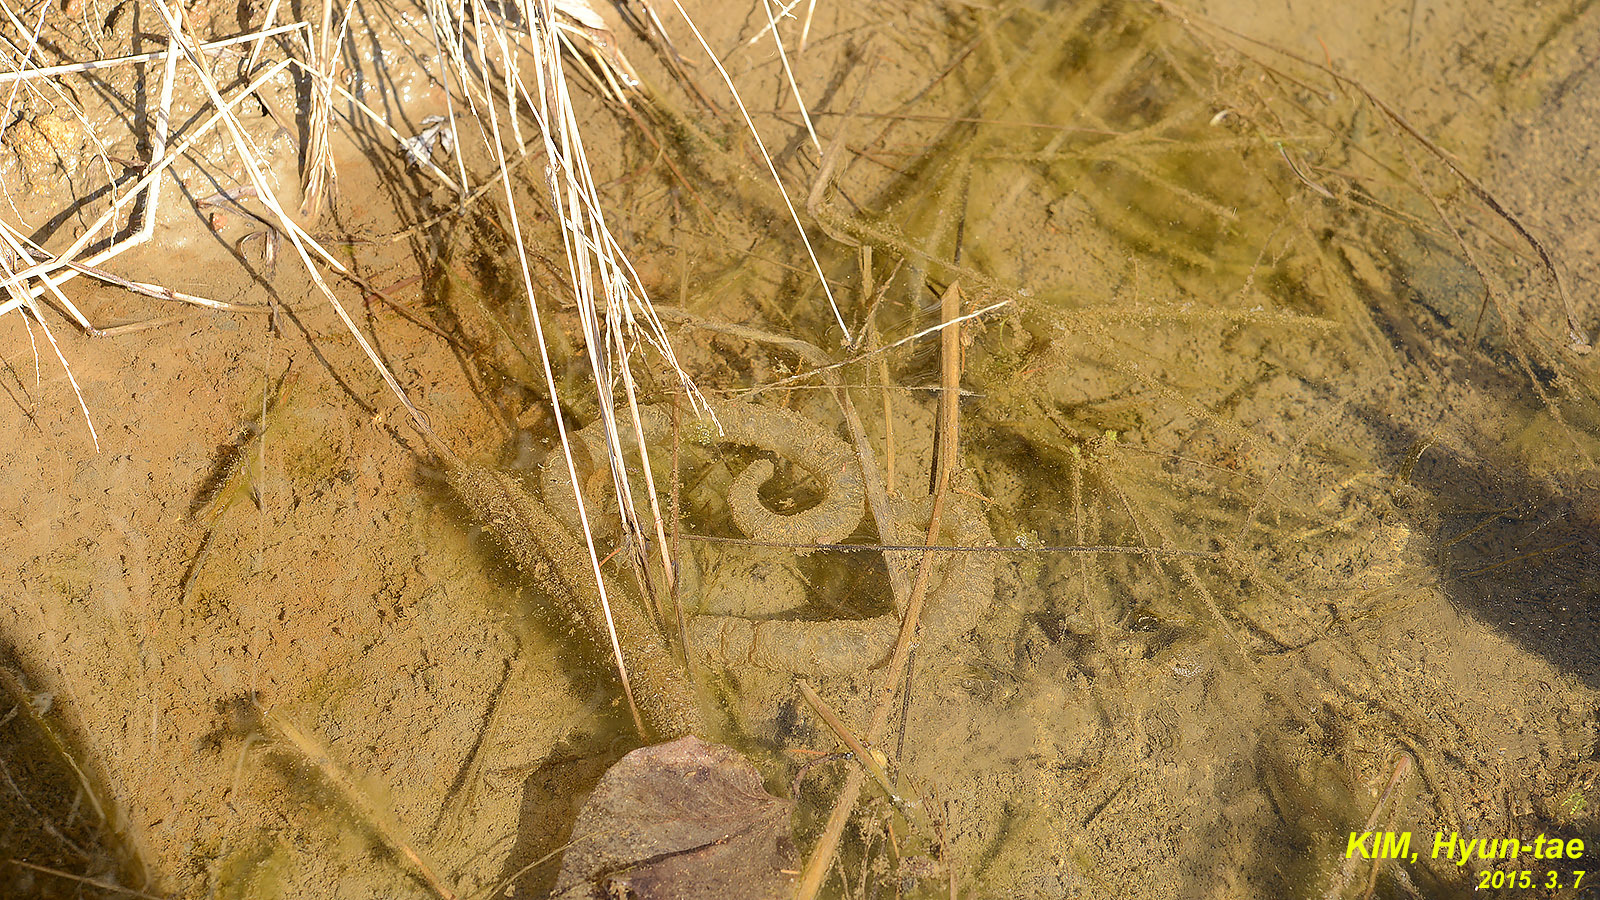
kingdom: Animalia
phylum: Chordata
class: Amphibia
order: Caudata
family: Hynobiidae
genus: Hynobius
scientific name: Hynobius leechii
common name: Gensan salamander
